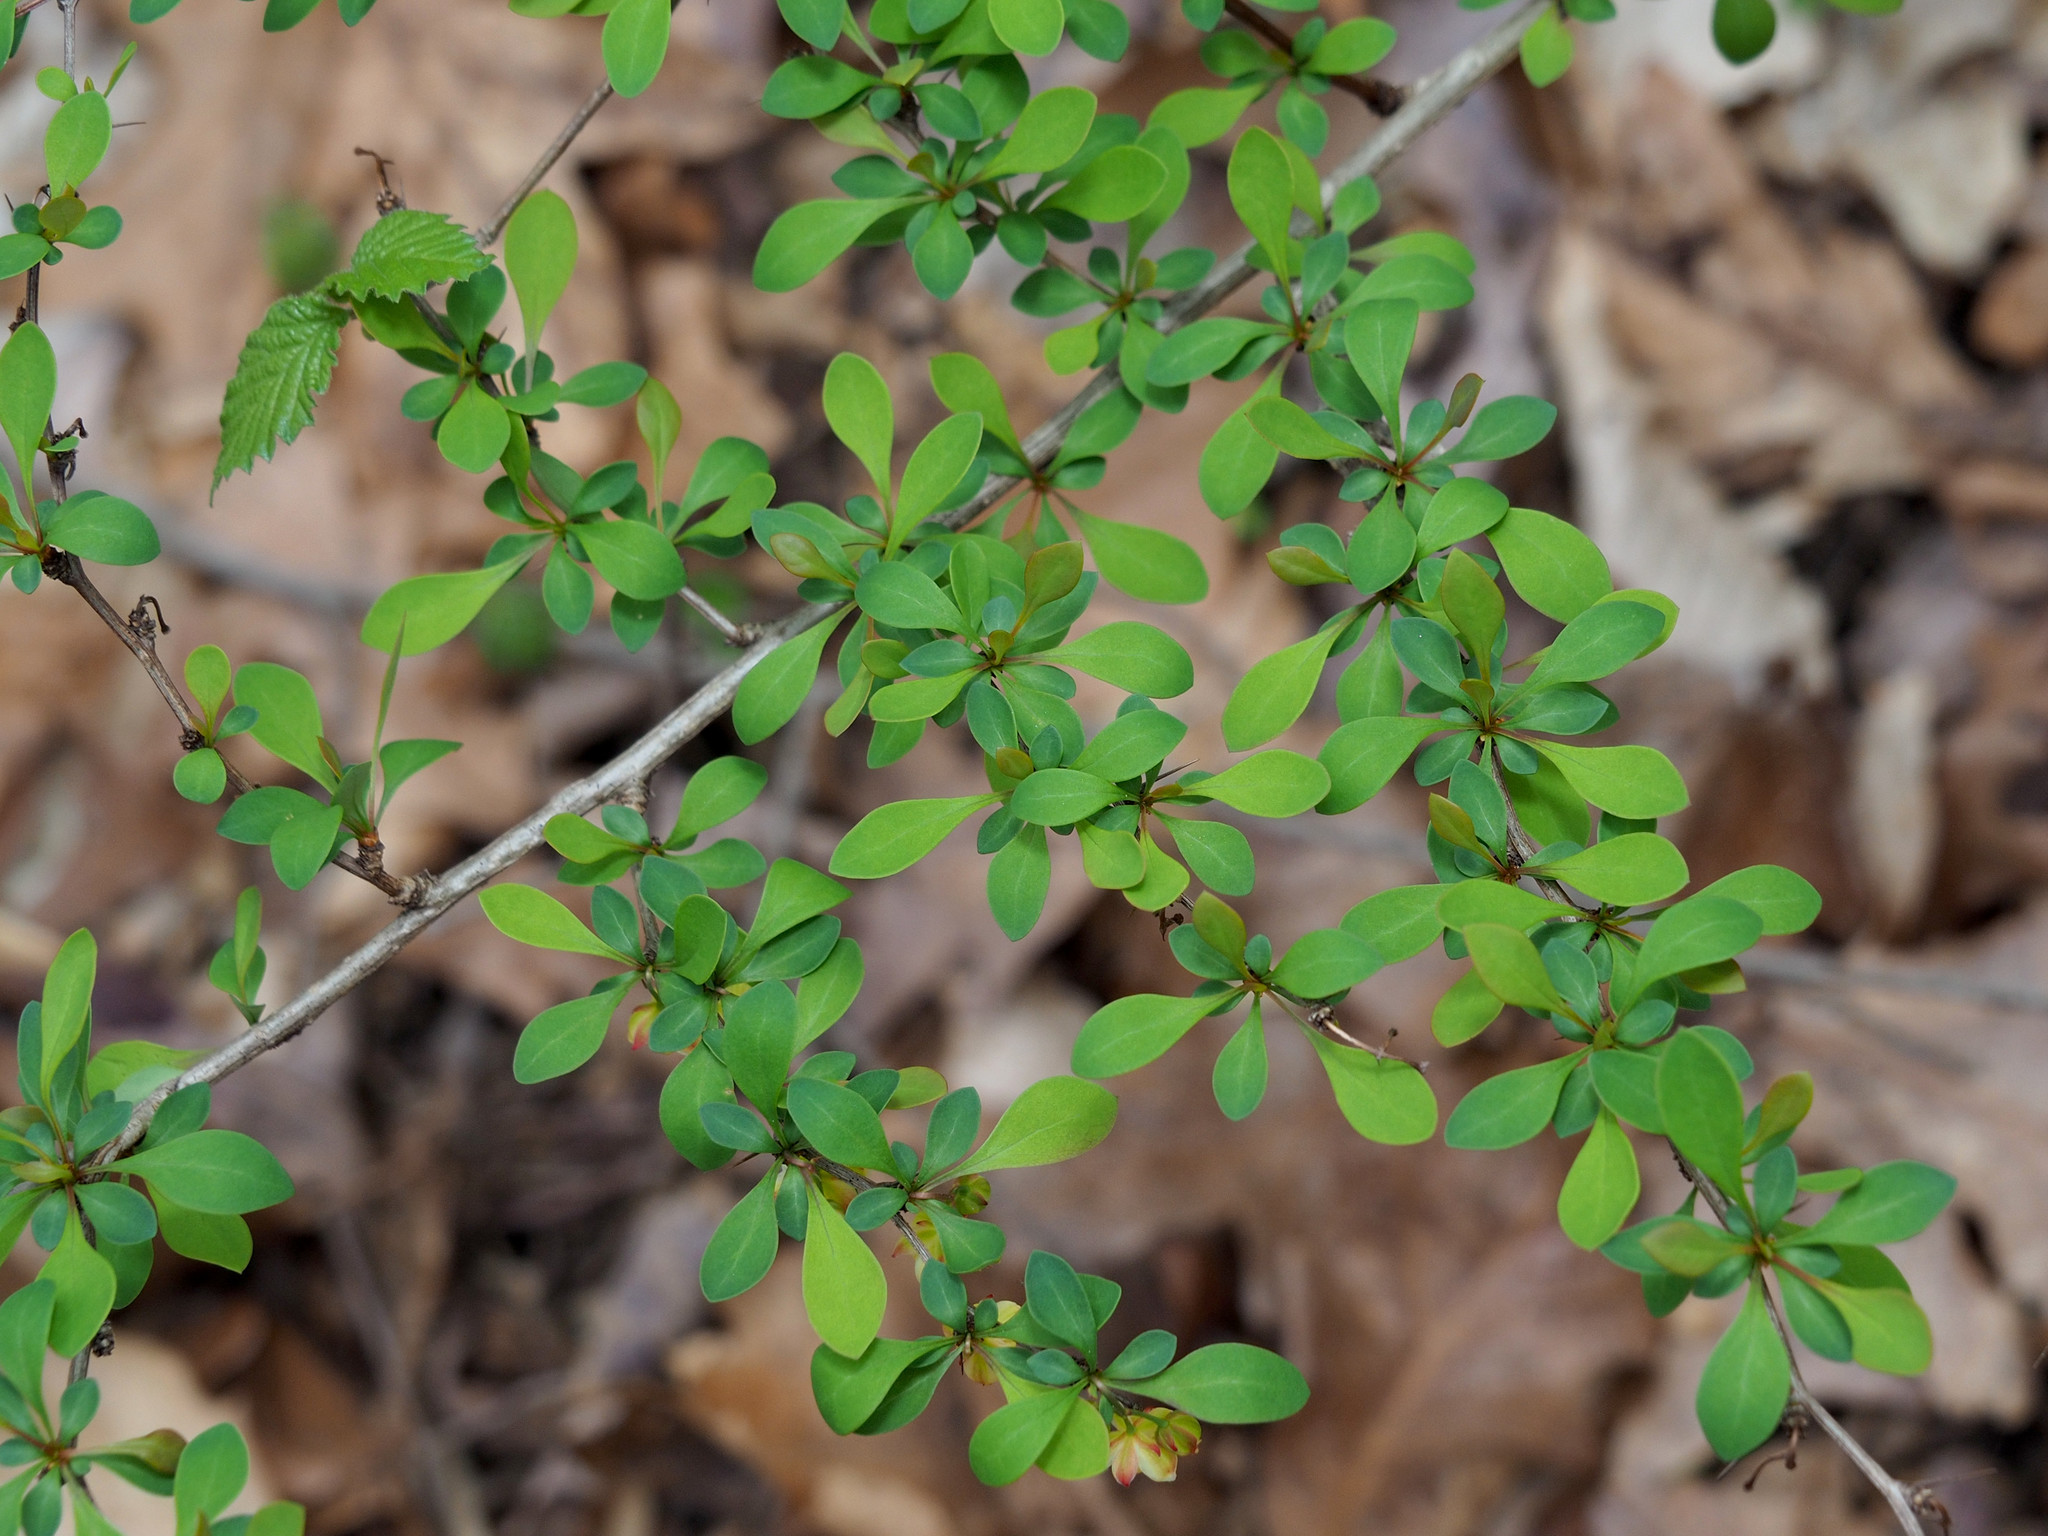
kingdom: Plantae
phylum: Tracheophyta
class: Magnoliopsida
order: Ranunculales
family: Berberidaceae
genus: Berberis
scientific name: Berberis thunbergii
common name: Japanese barberry
